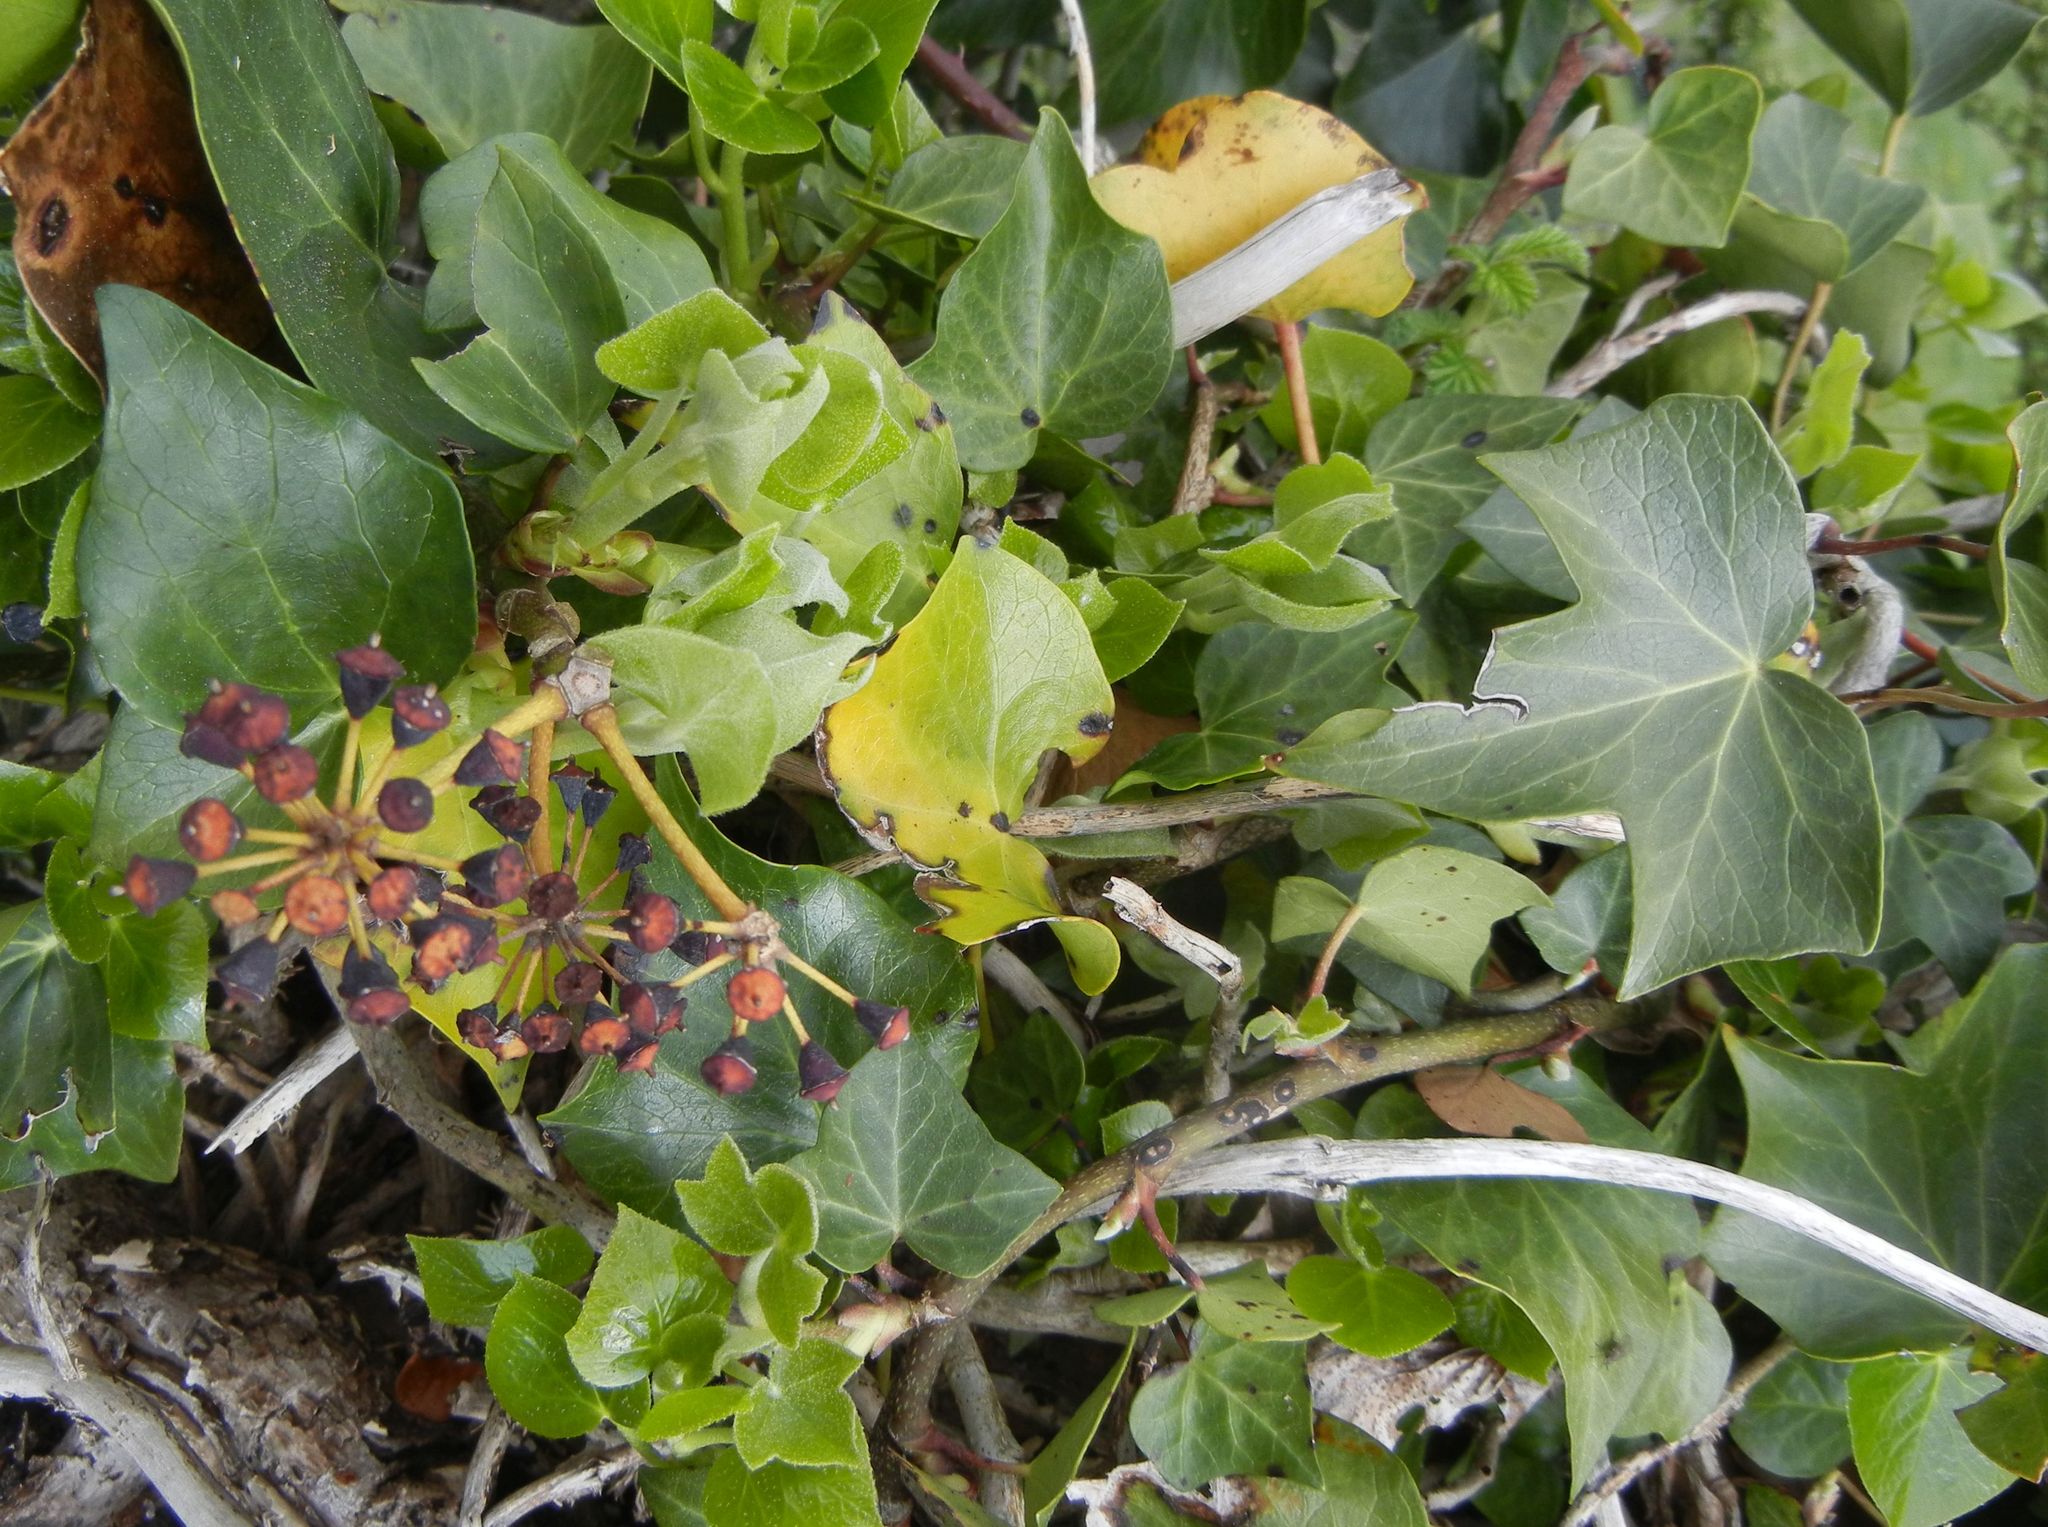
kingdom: Plantae
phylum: Tracheophyta
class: Magnoliopsida
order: Apiales
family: Araliaceae
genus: Hedera
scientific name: Hedera helix
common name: Ivy
